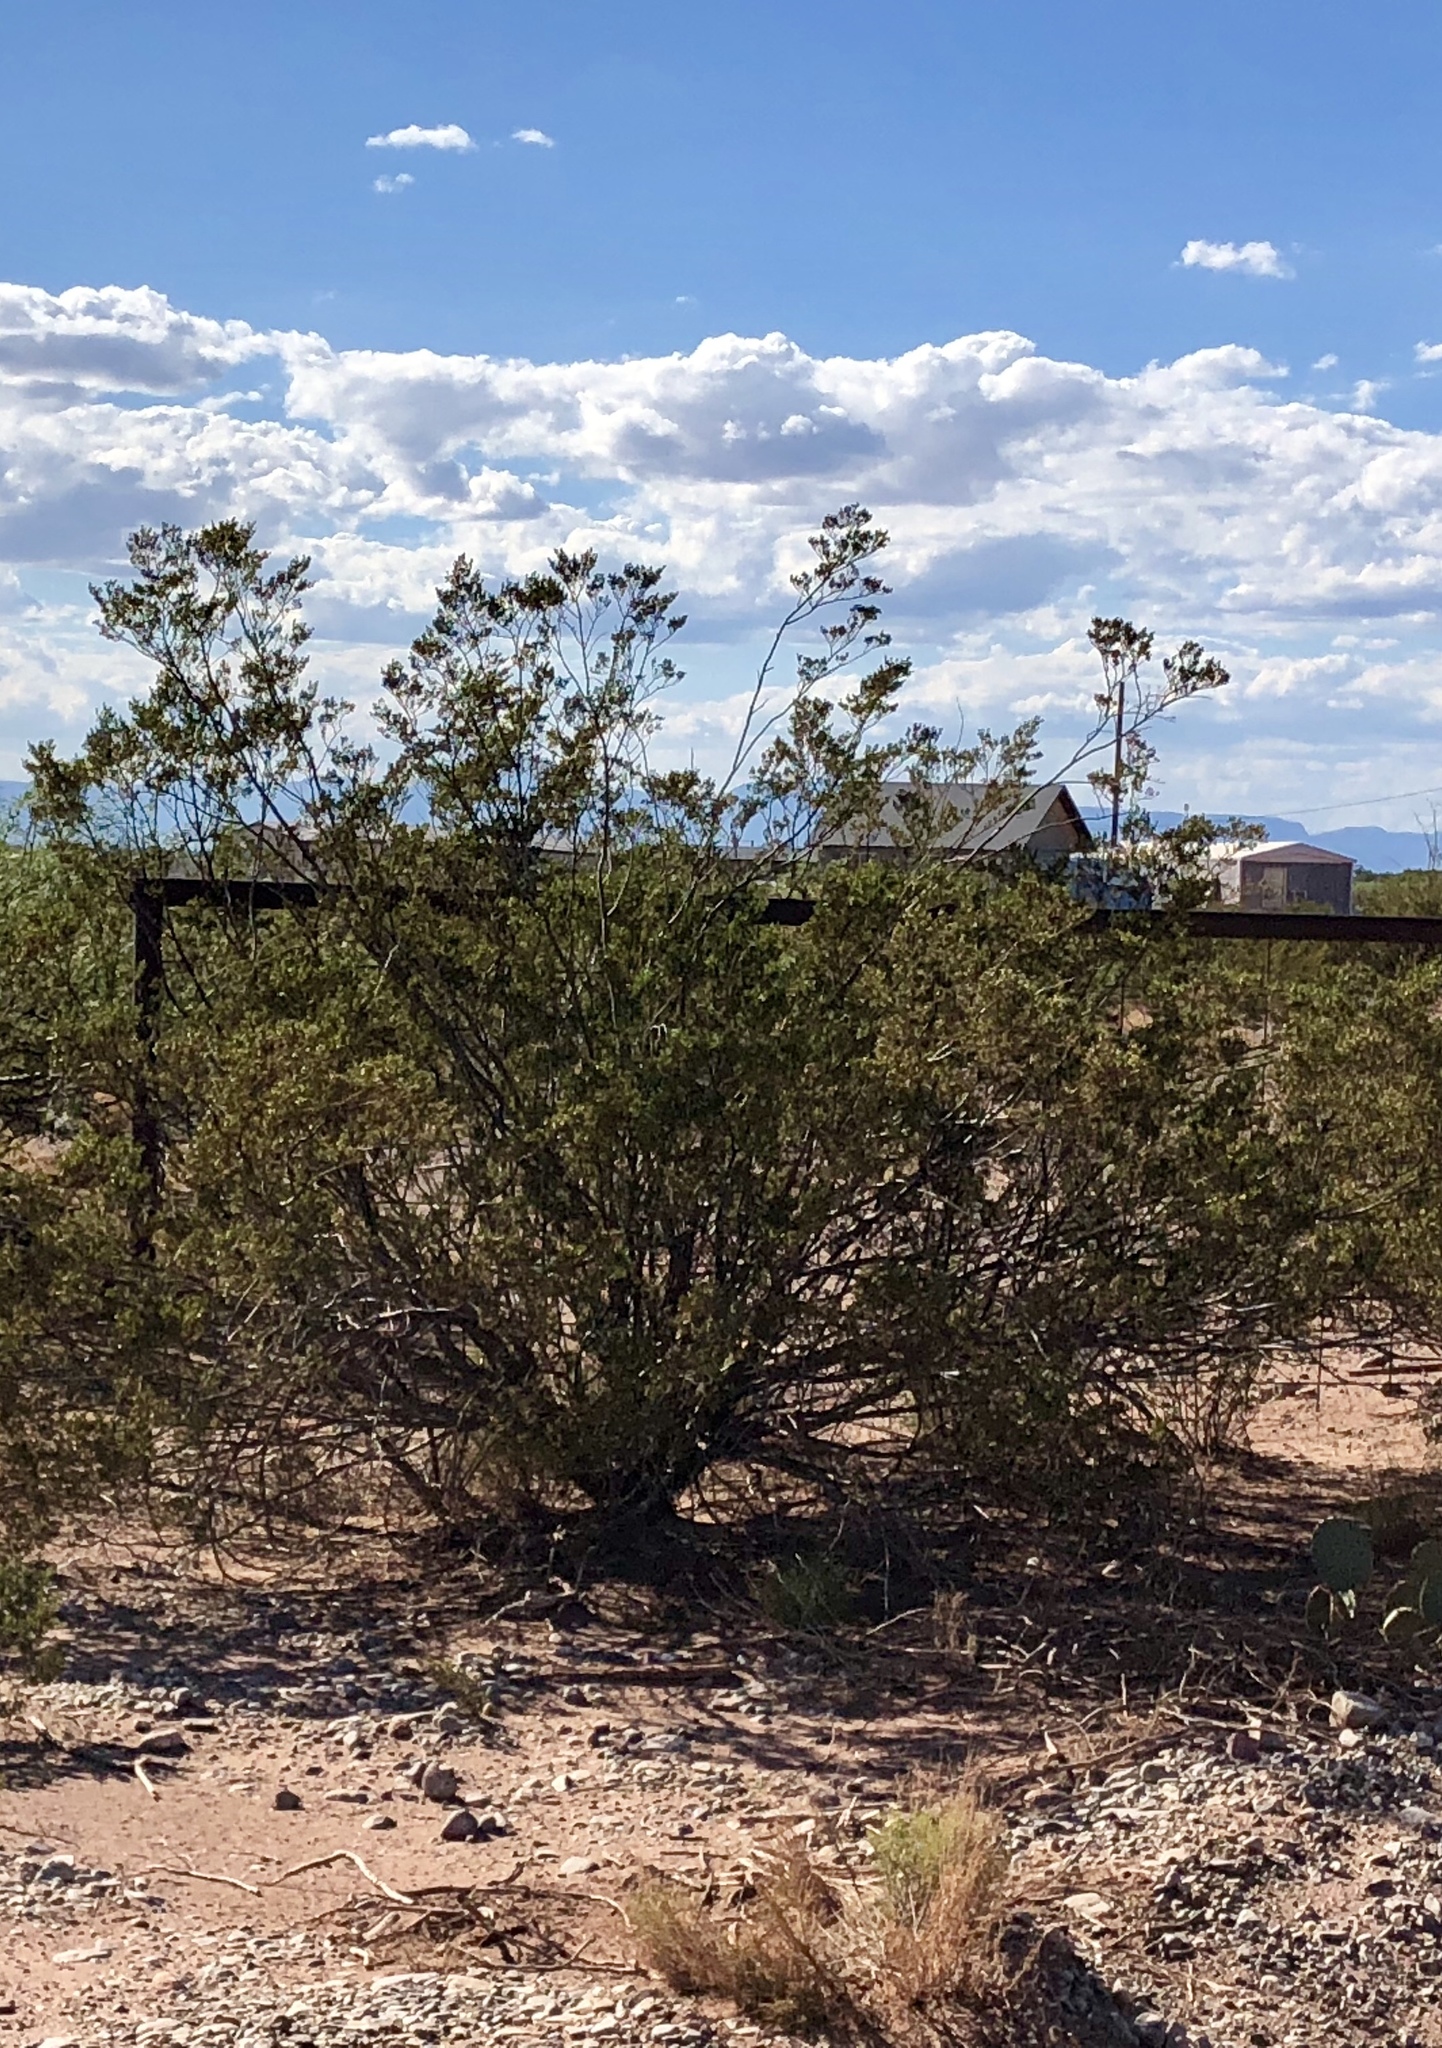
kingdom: Plantae
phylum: Tracheophyta
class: Magnoliopsida
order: Zygophyllales
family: Zygophyllaceae
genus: Larrea
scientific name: Larrea tridentata
